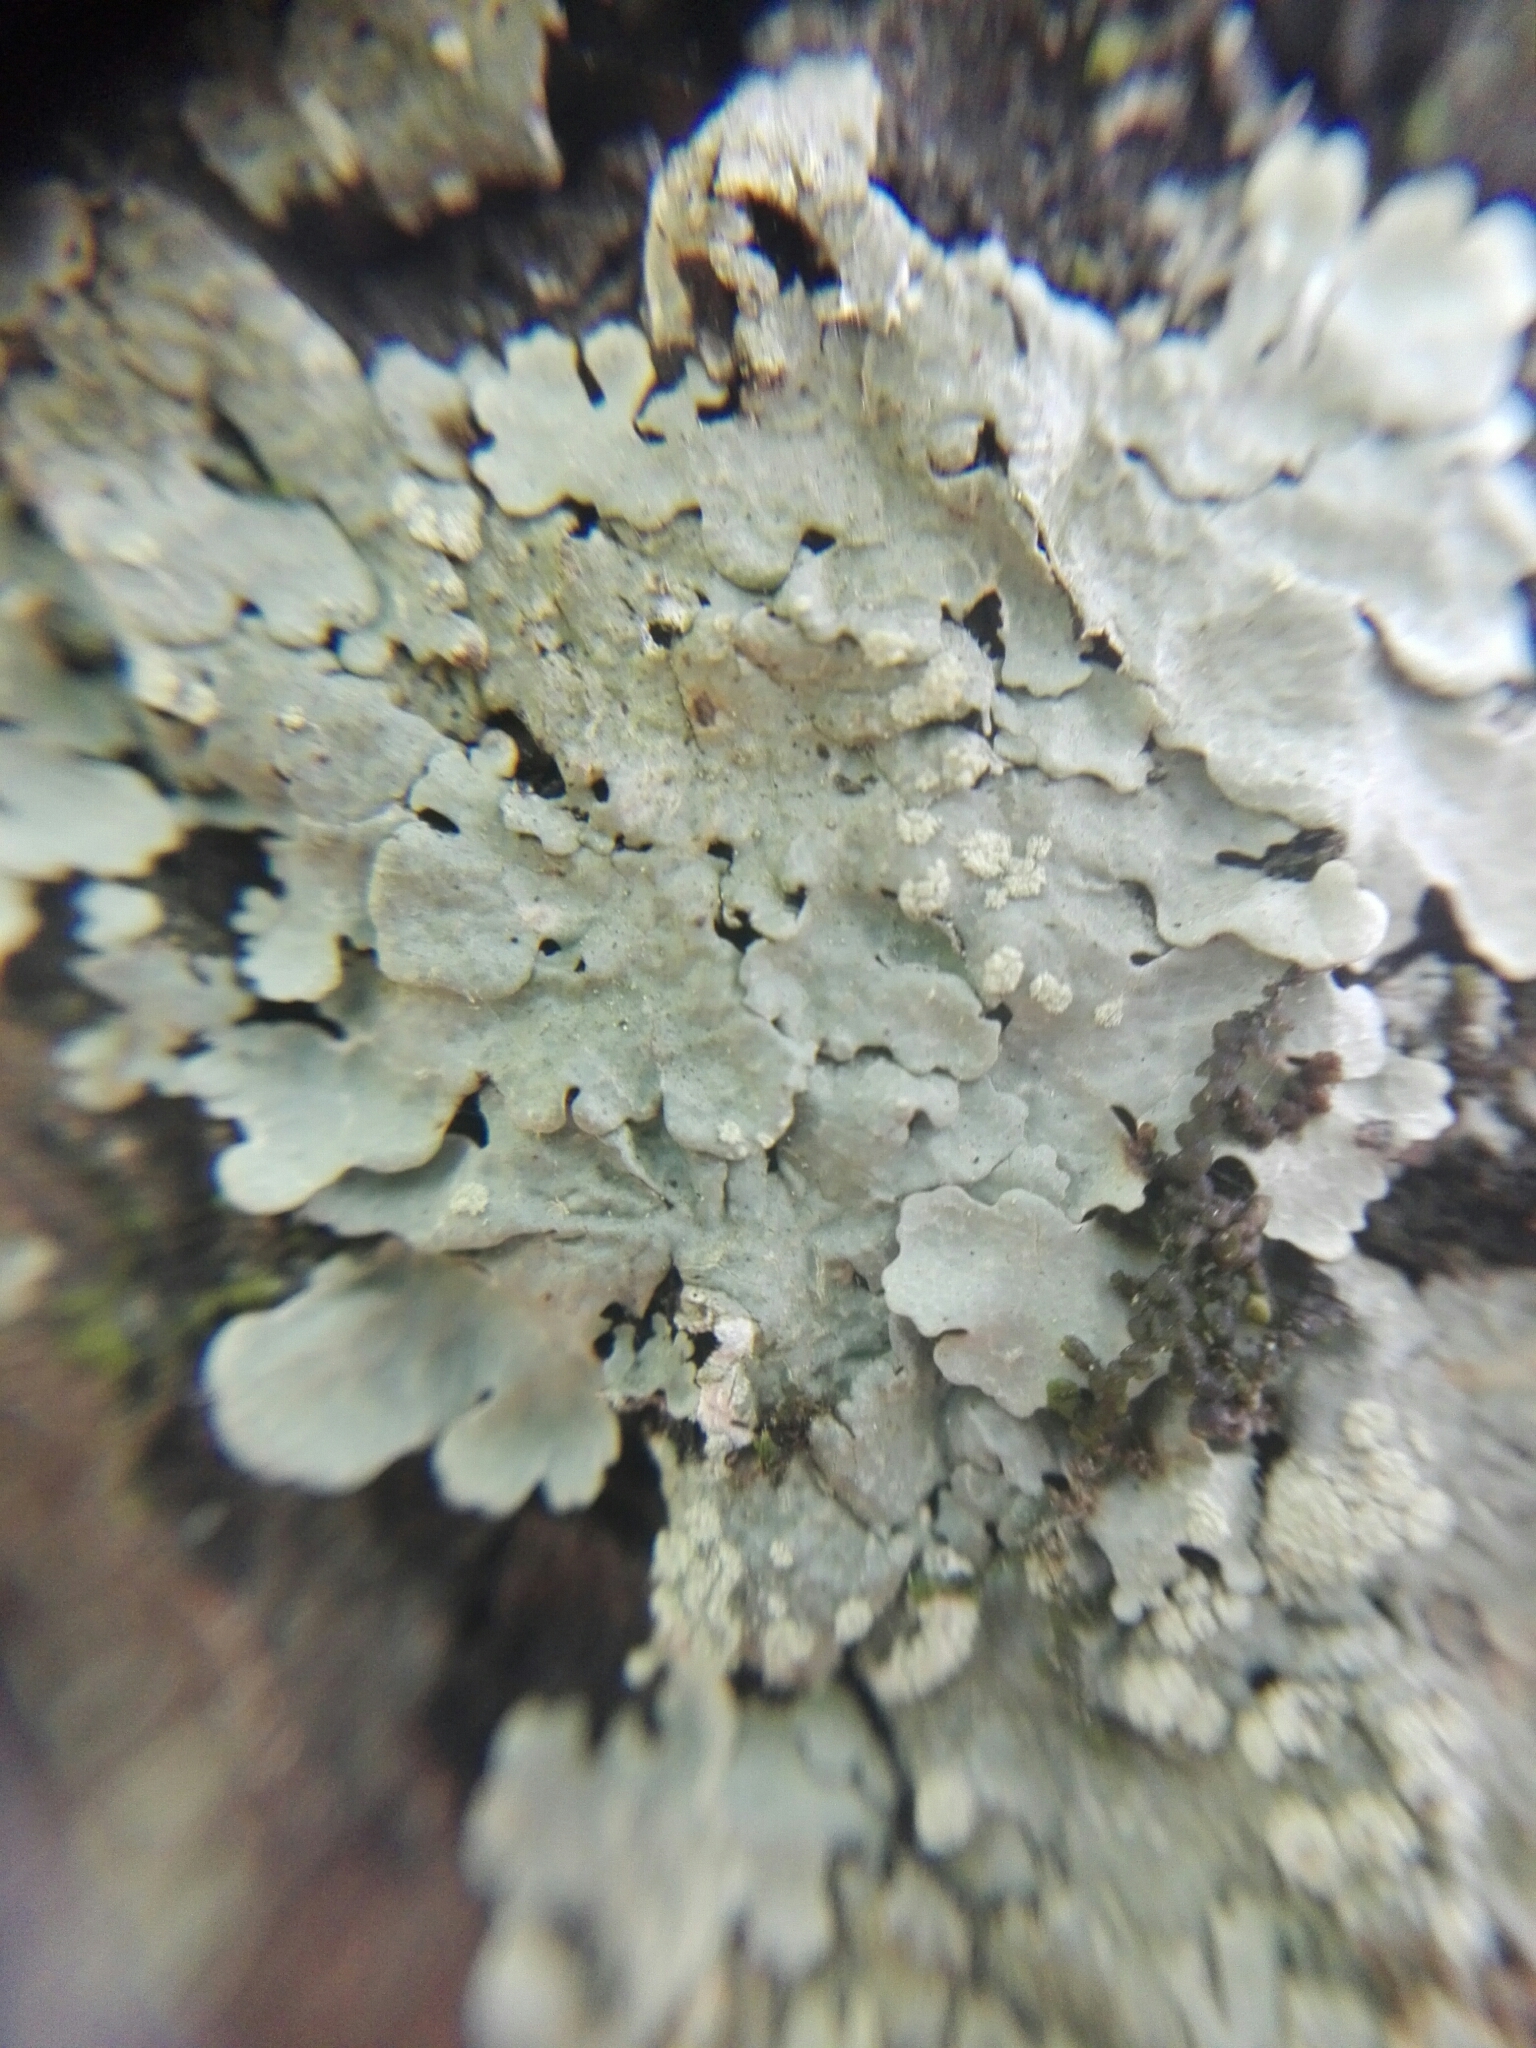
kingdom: Fungi
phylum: Ascomycota
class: Lecanoromycetes
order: Lecanorales
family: Parmeliaceae
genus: Canoparmelia
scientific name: Canoparmelia texana
